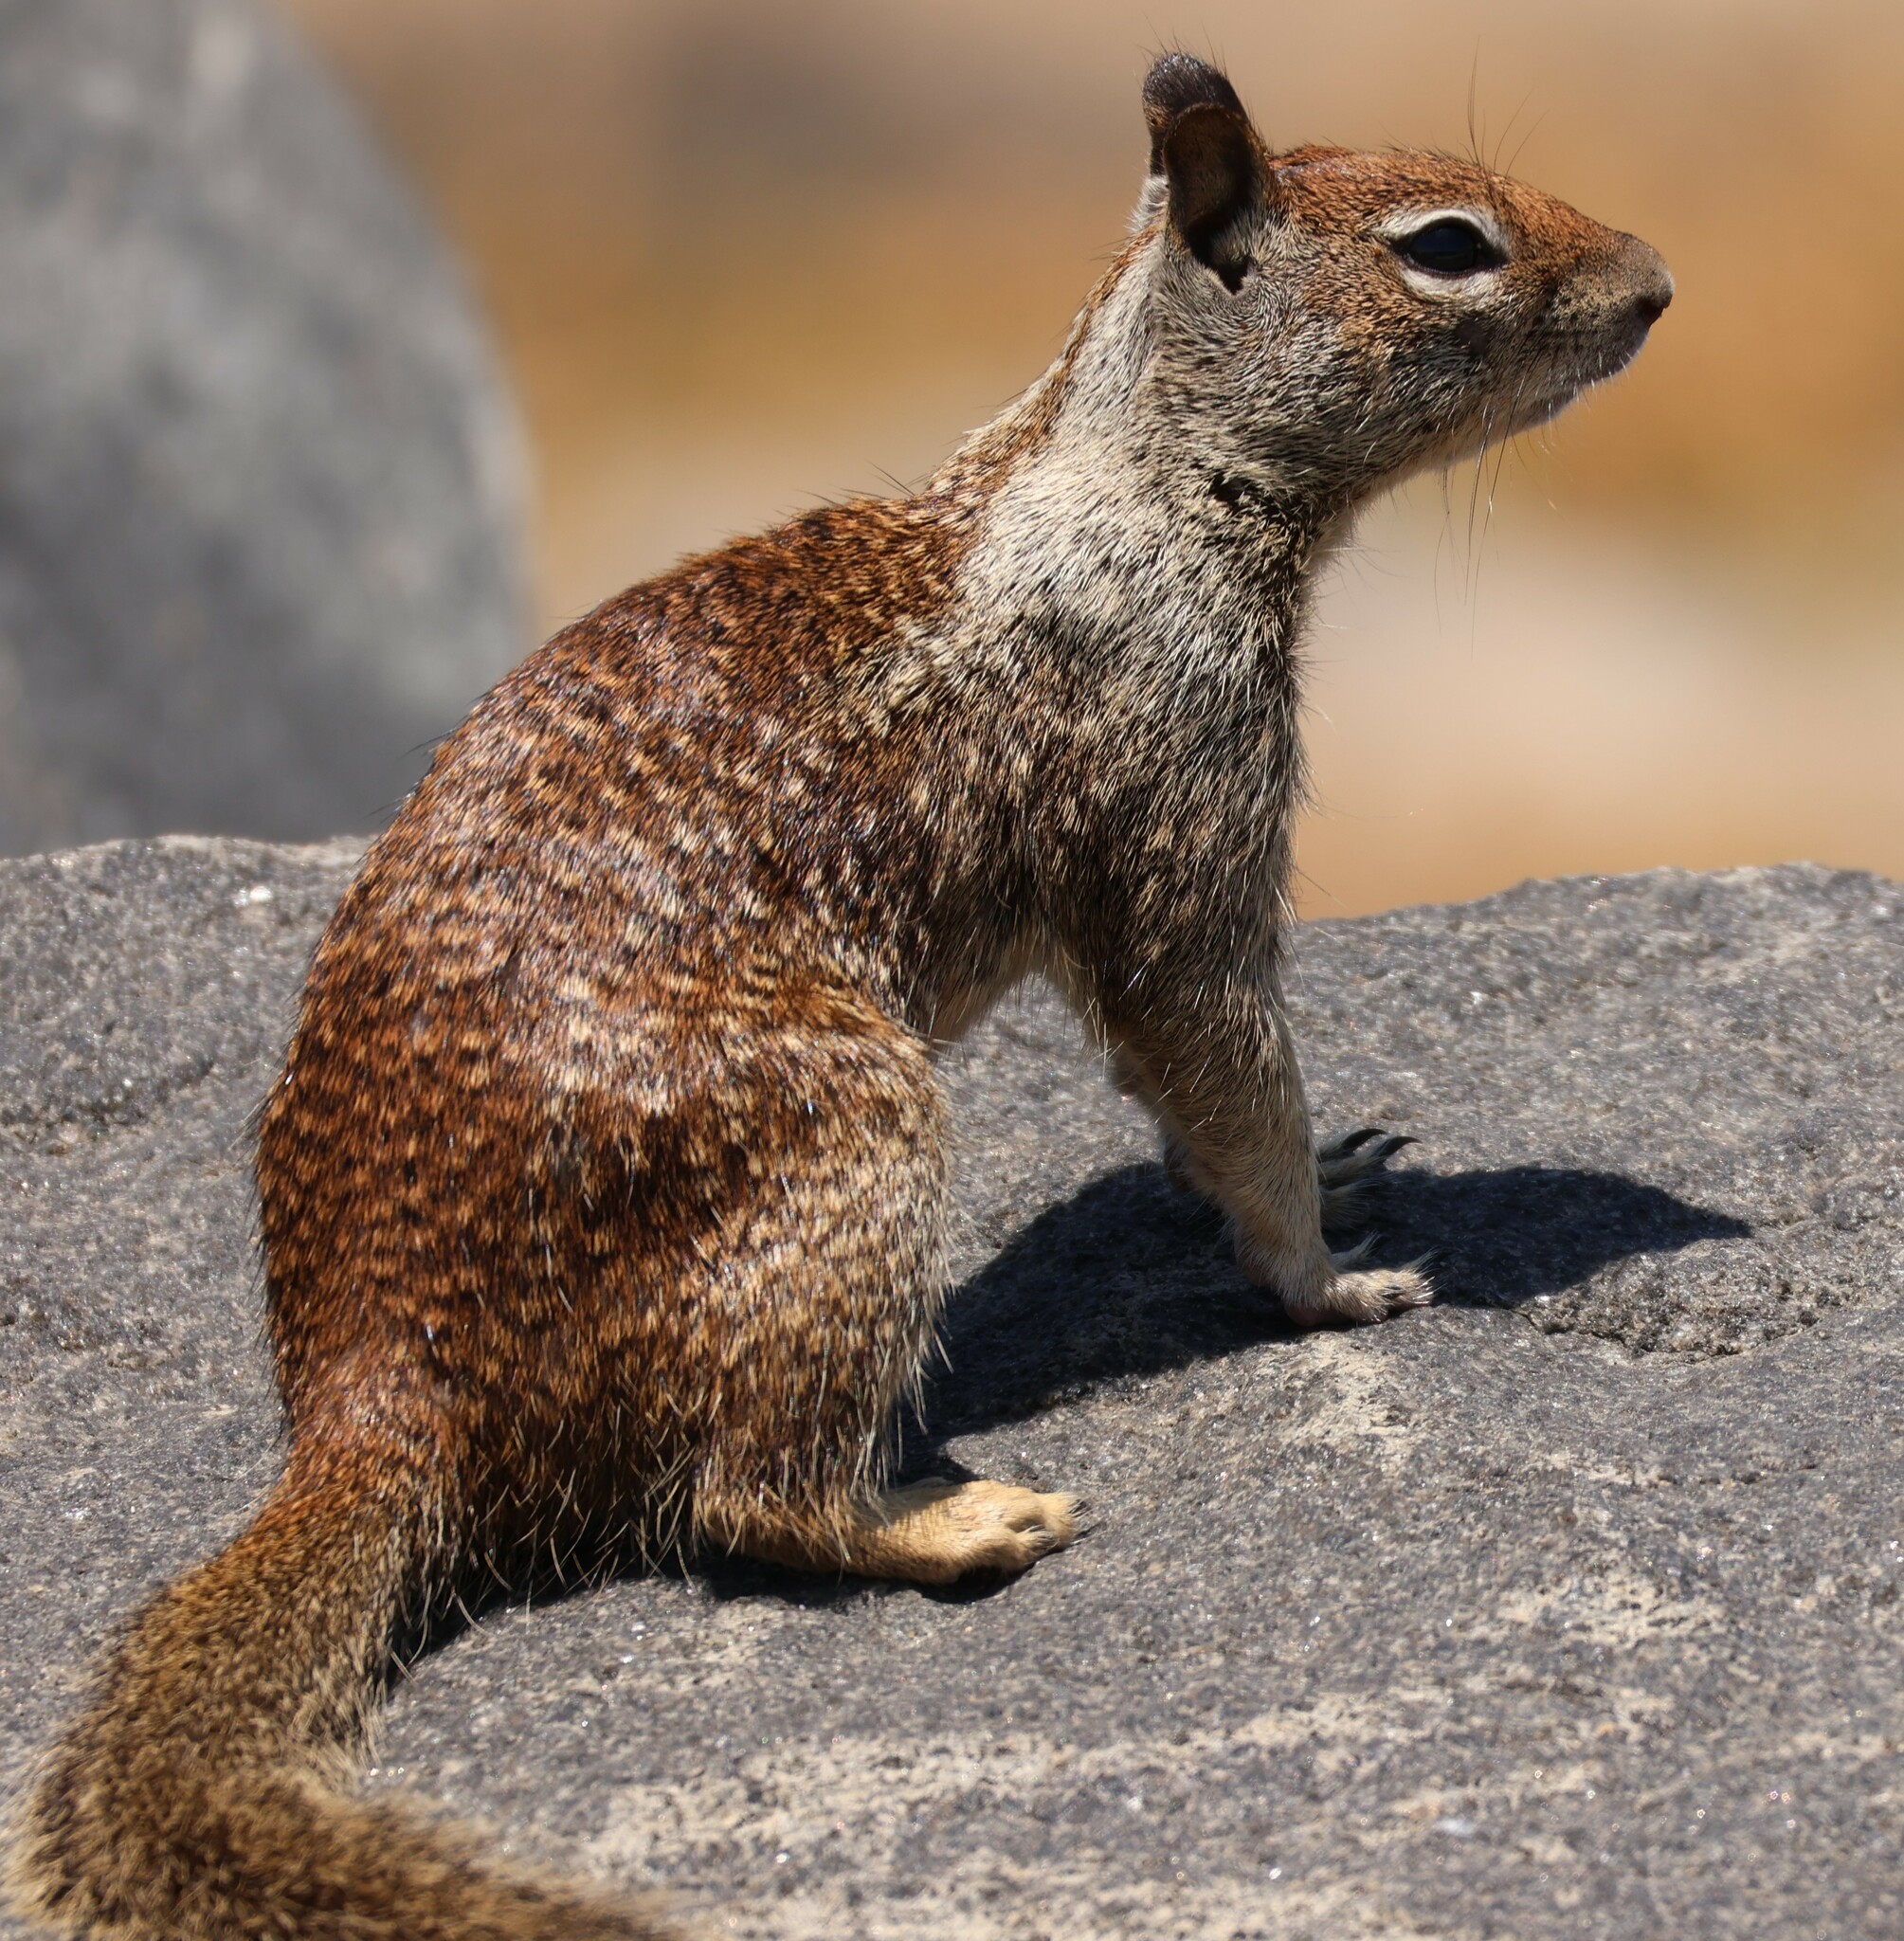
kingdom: Animalia
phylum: Chordata
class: Mammalia
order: Rodentia
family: Sciuridae
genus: Otospermophilus
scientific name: Otospermophilus beecheyi
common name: California ground squirrel
